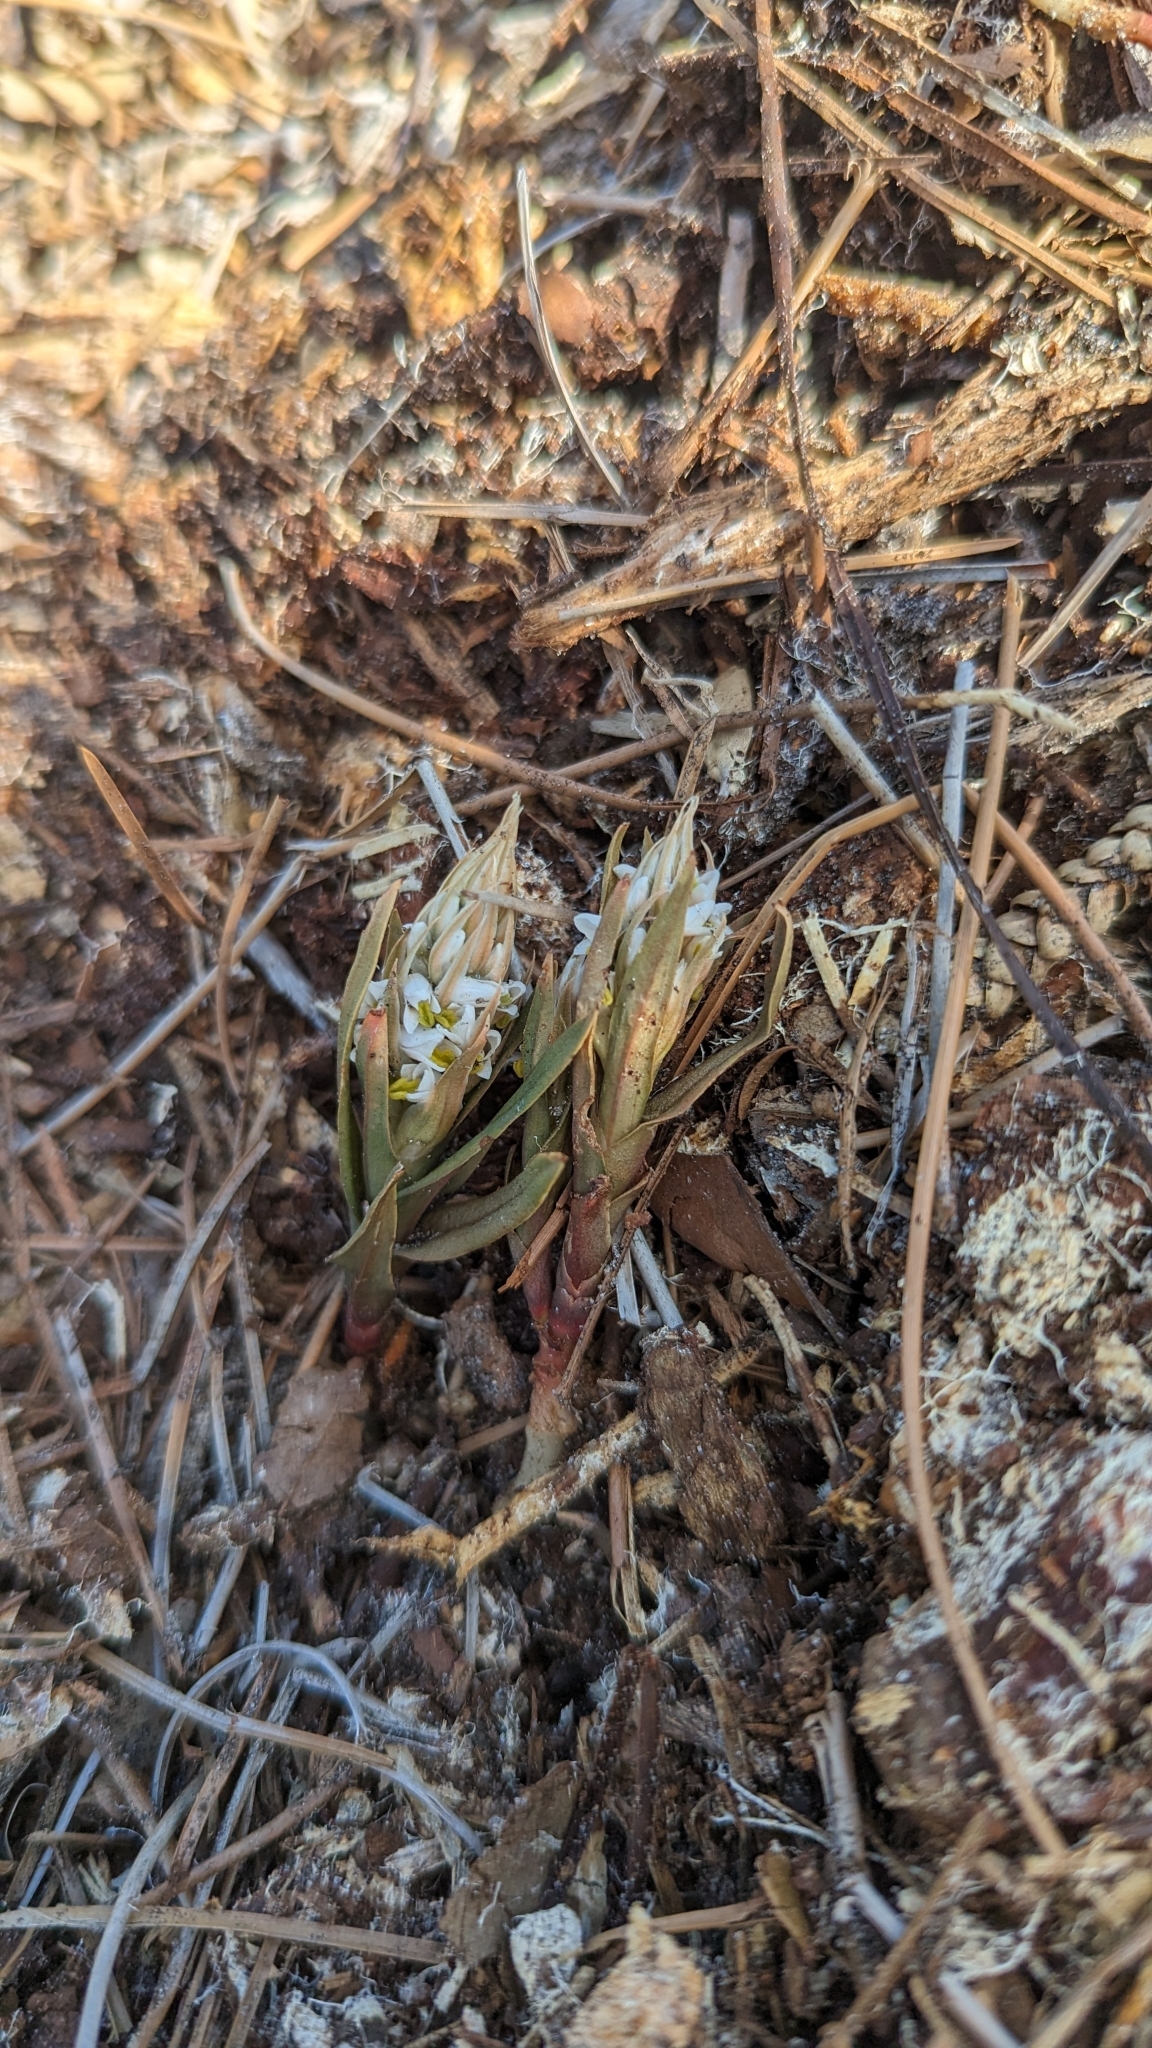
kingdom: Plantae
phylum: Tracheophyta
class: Liliopsida
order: Asparagales
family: Orchidaceae
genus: Zeuxine
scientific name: Zeuxine strateumatica
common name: Soldier's orchid
